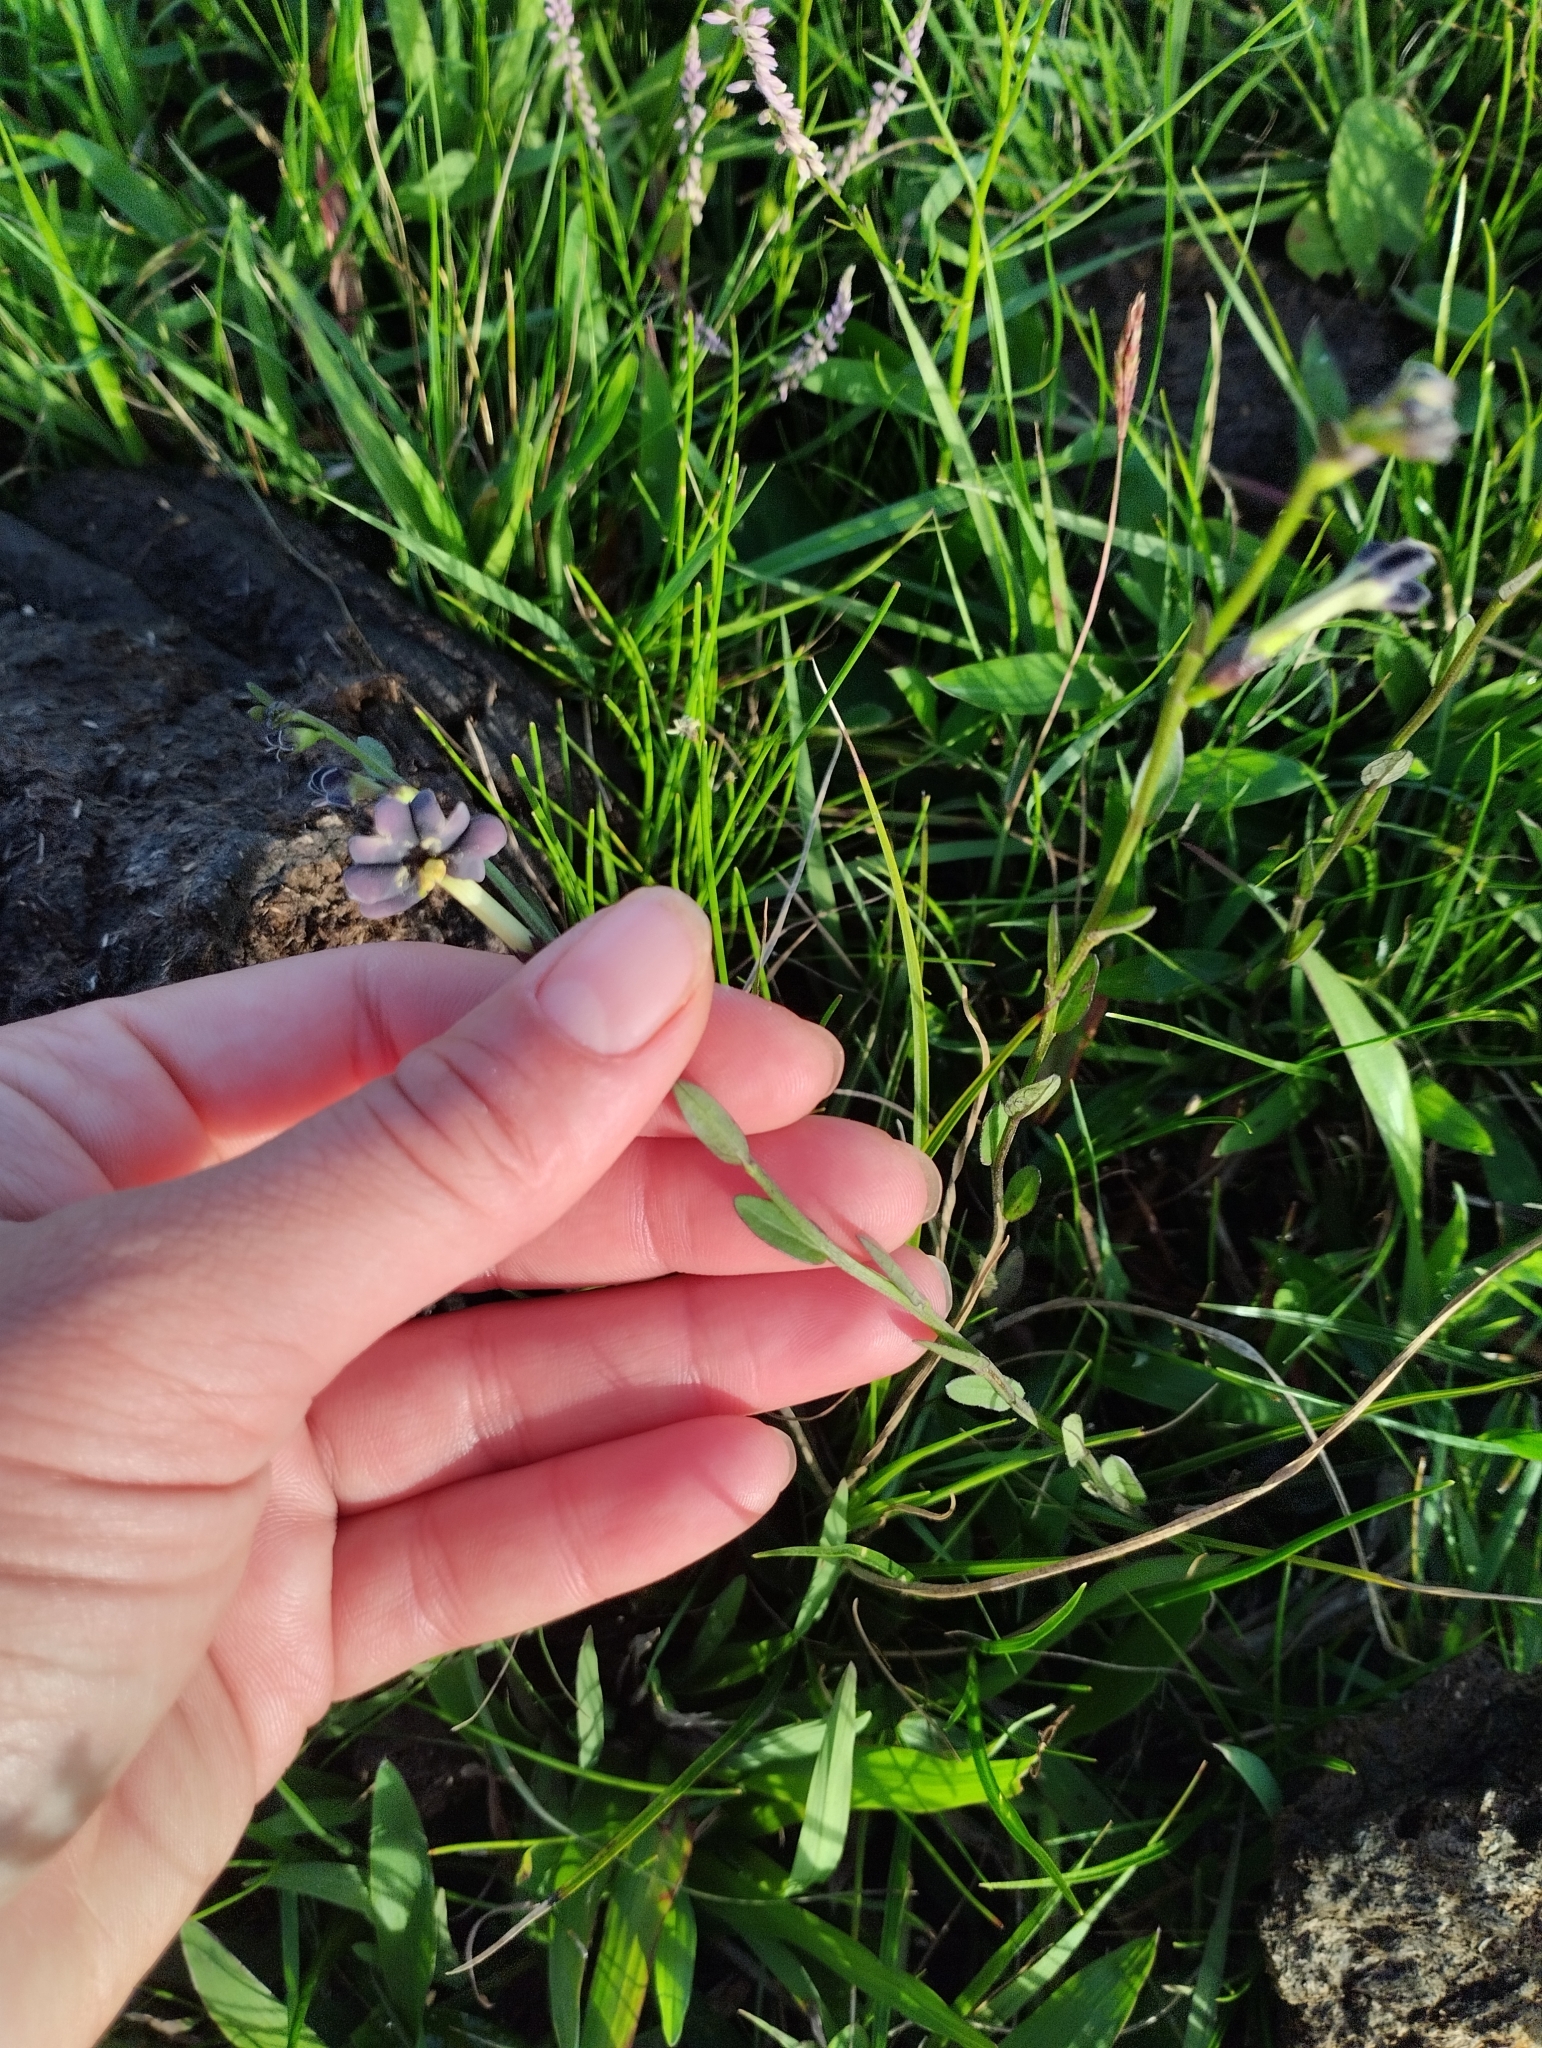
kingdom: Plantae
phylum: Tracheophyta
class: Magnoliopsida
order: Solanales
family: Solanaceae
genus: Schwenckia
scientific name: Schwenckia curviflora
